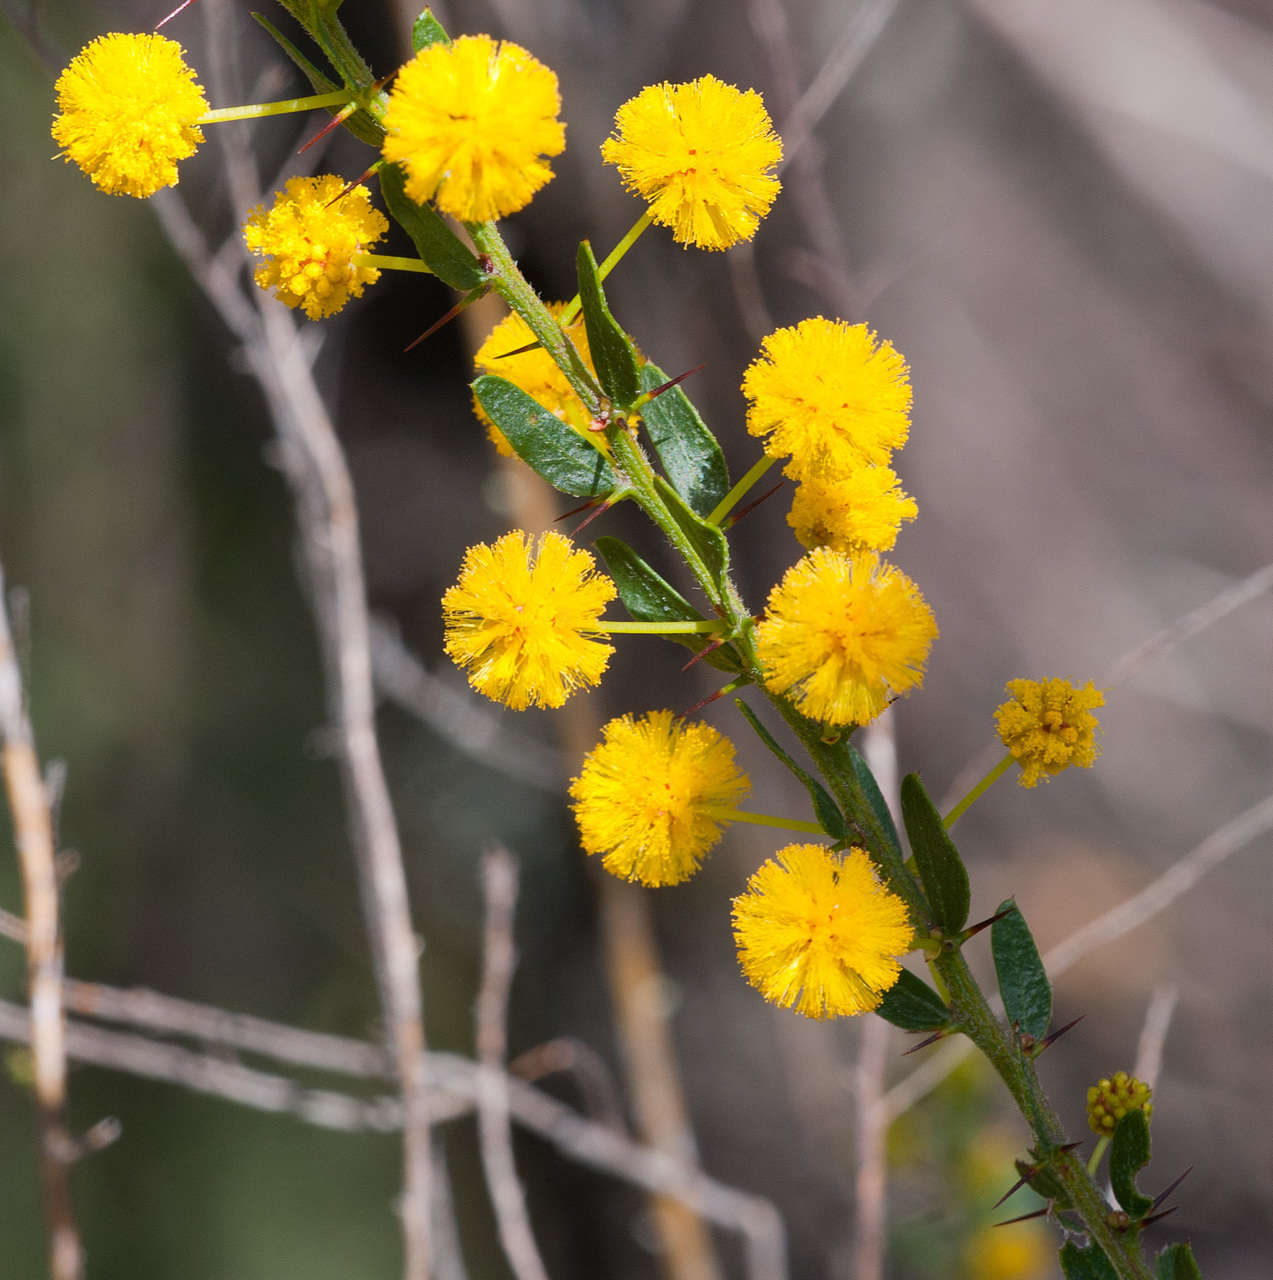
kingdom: Plantae
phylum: Tracheophyta
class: Magnoliopsida
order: Fabales
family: Fabaceae
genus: Acacia
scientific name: Acacia paradoxa
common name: Paradox acacia
